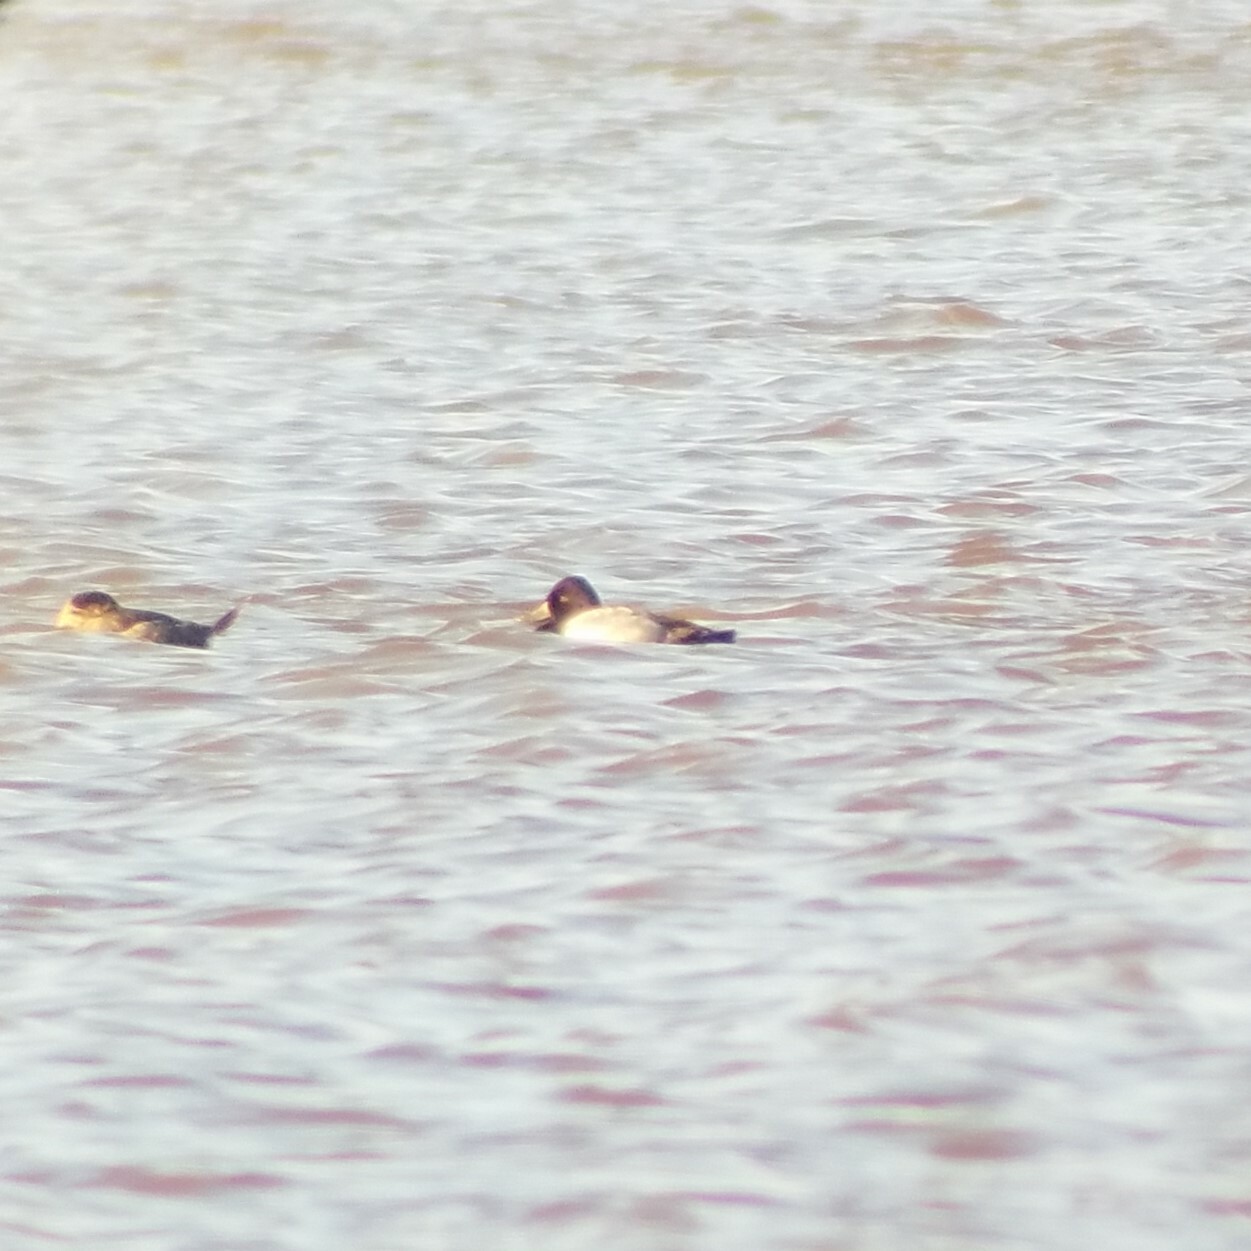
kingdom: Animalia
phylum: Chordata
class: Aves
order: Anseriformes
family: Anatidae
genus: Aythya
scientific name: Aythya affinis
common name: Lesser scaup
